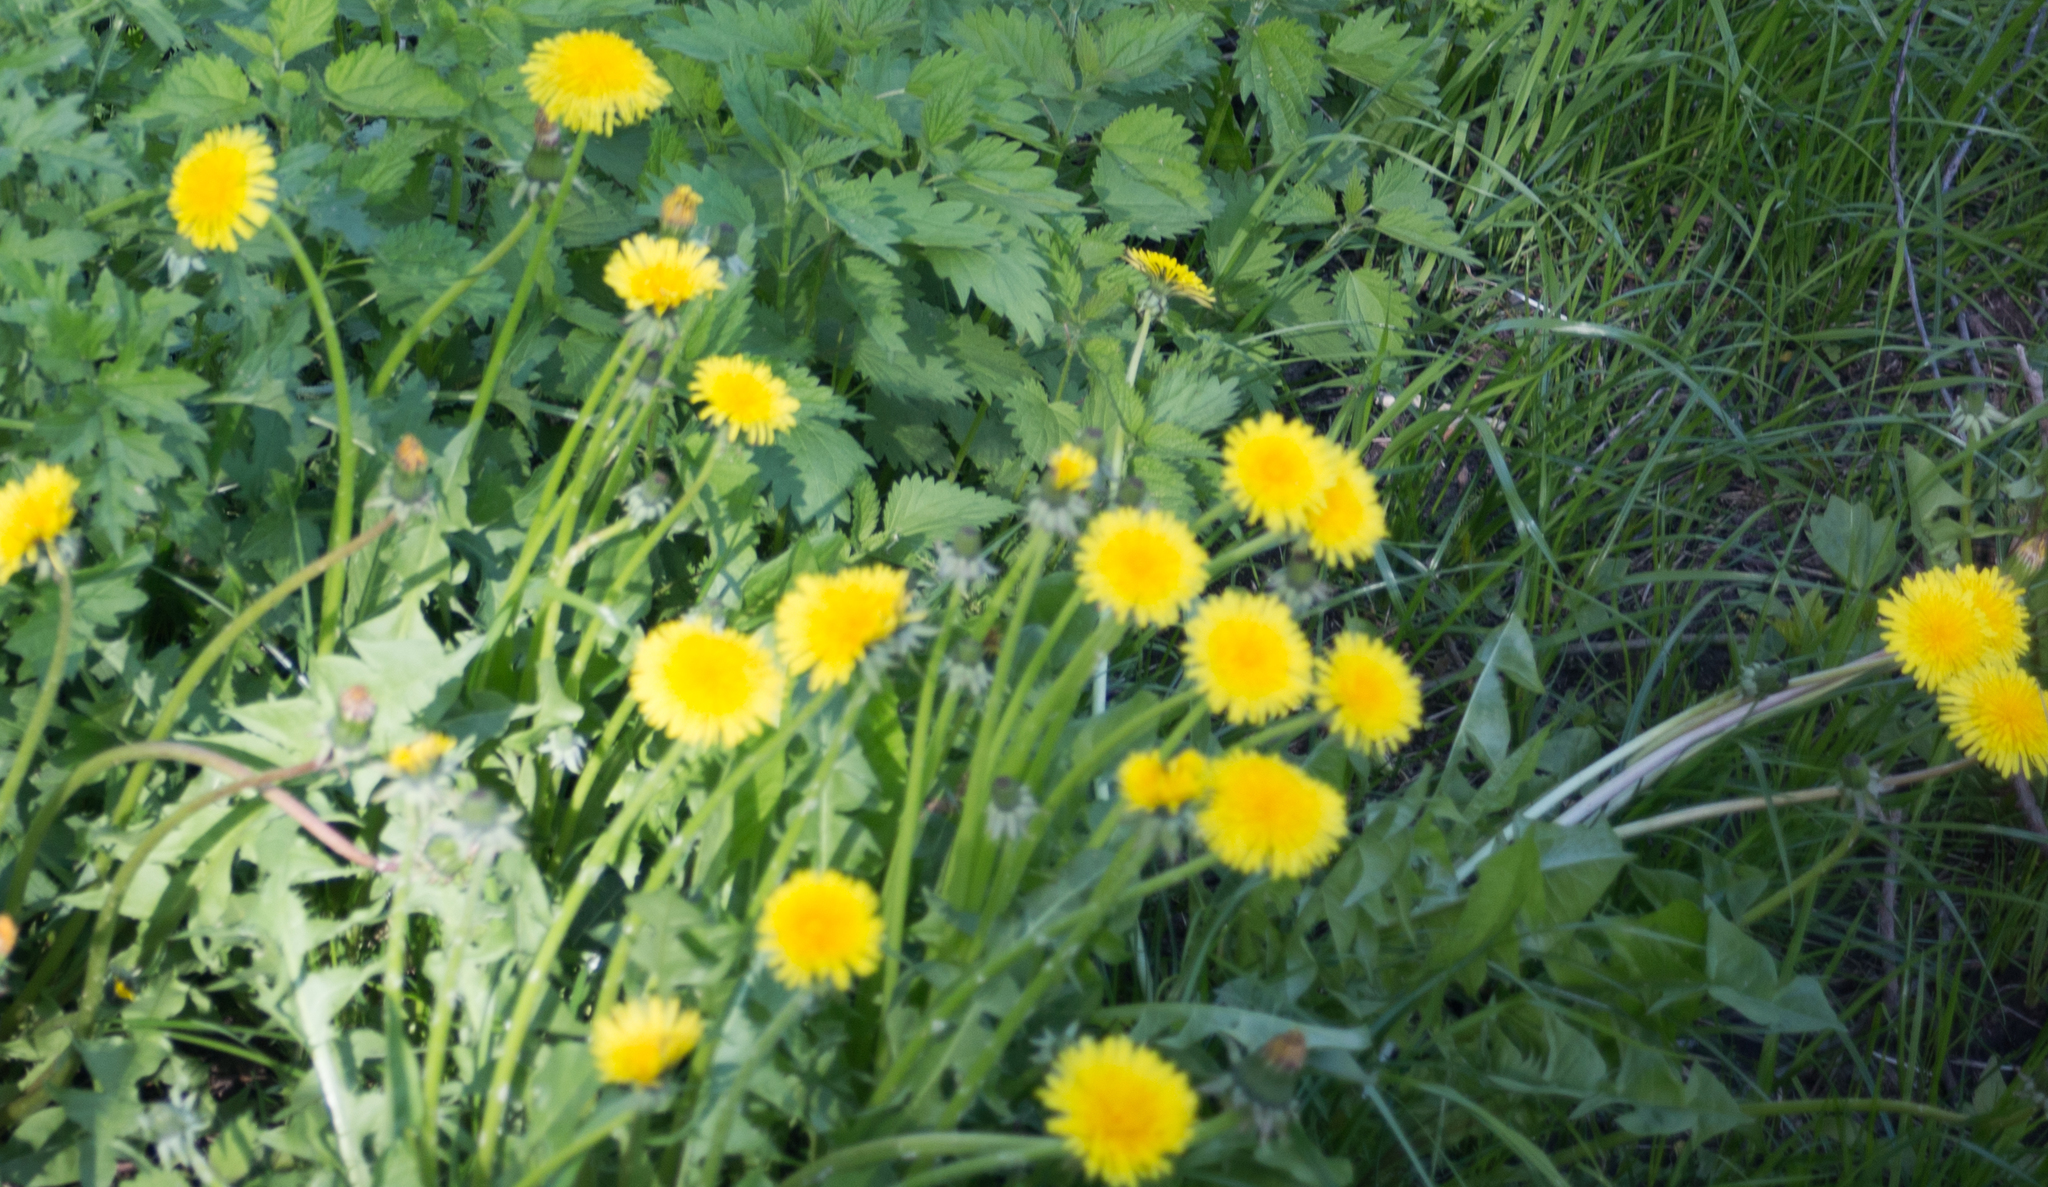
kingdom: Plantae
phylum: Tracheophyta
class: Magnoliopsida
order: Asterales
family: Asteraceae
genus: Taraxacum
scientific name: Taraxacum officinale
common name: Common dandelion
